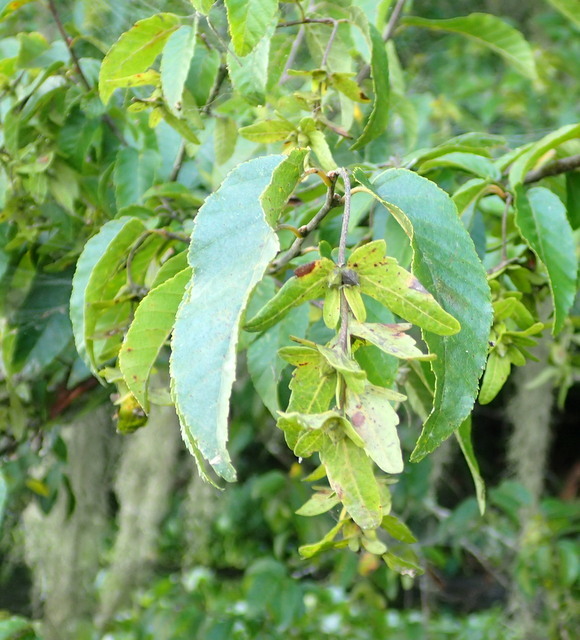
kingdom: Plantae
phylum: Tracheophyta
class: Magnoliopsida
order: Fagales
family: Betulaceae
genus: Carpinus
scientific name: Carpinus caroliniana
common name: American hornbeam
